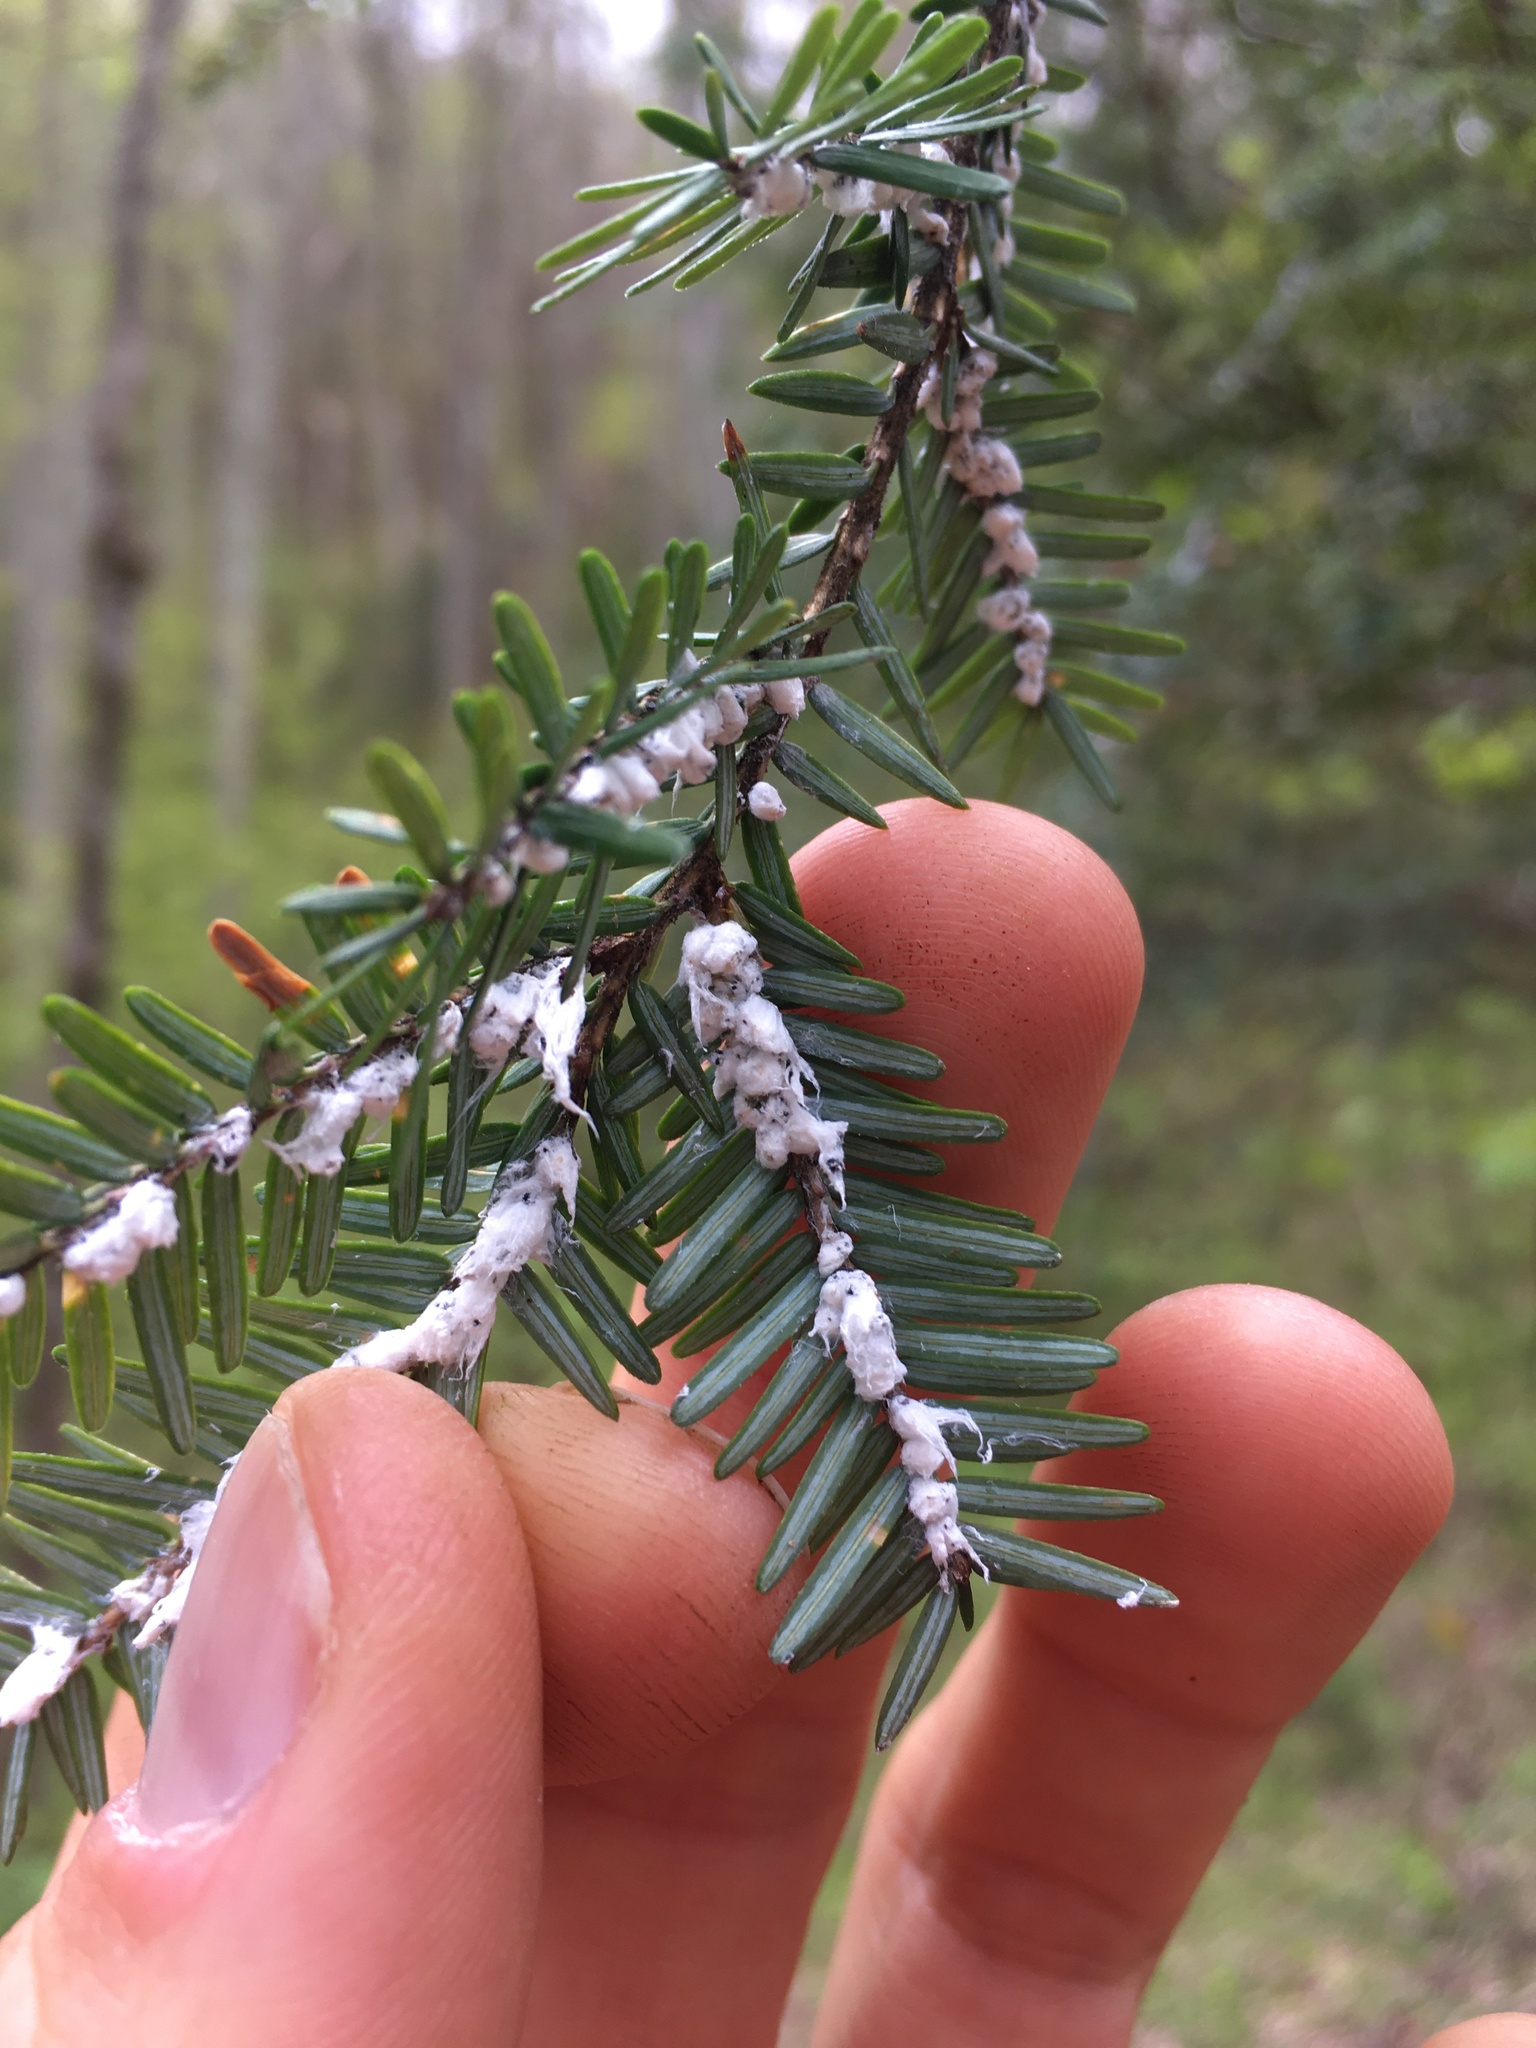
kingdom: Animalia
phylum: Arthropoda
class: Insecta
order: Hemiptera
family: Adelgidae
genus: Adelges
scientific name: Adelges tsugae
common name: Hemlock woolly adelgid
